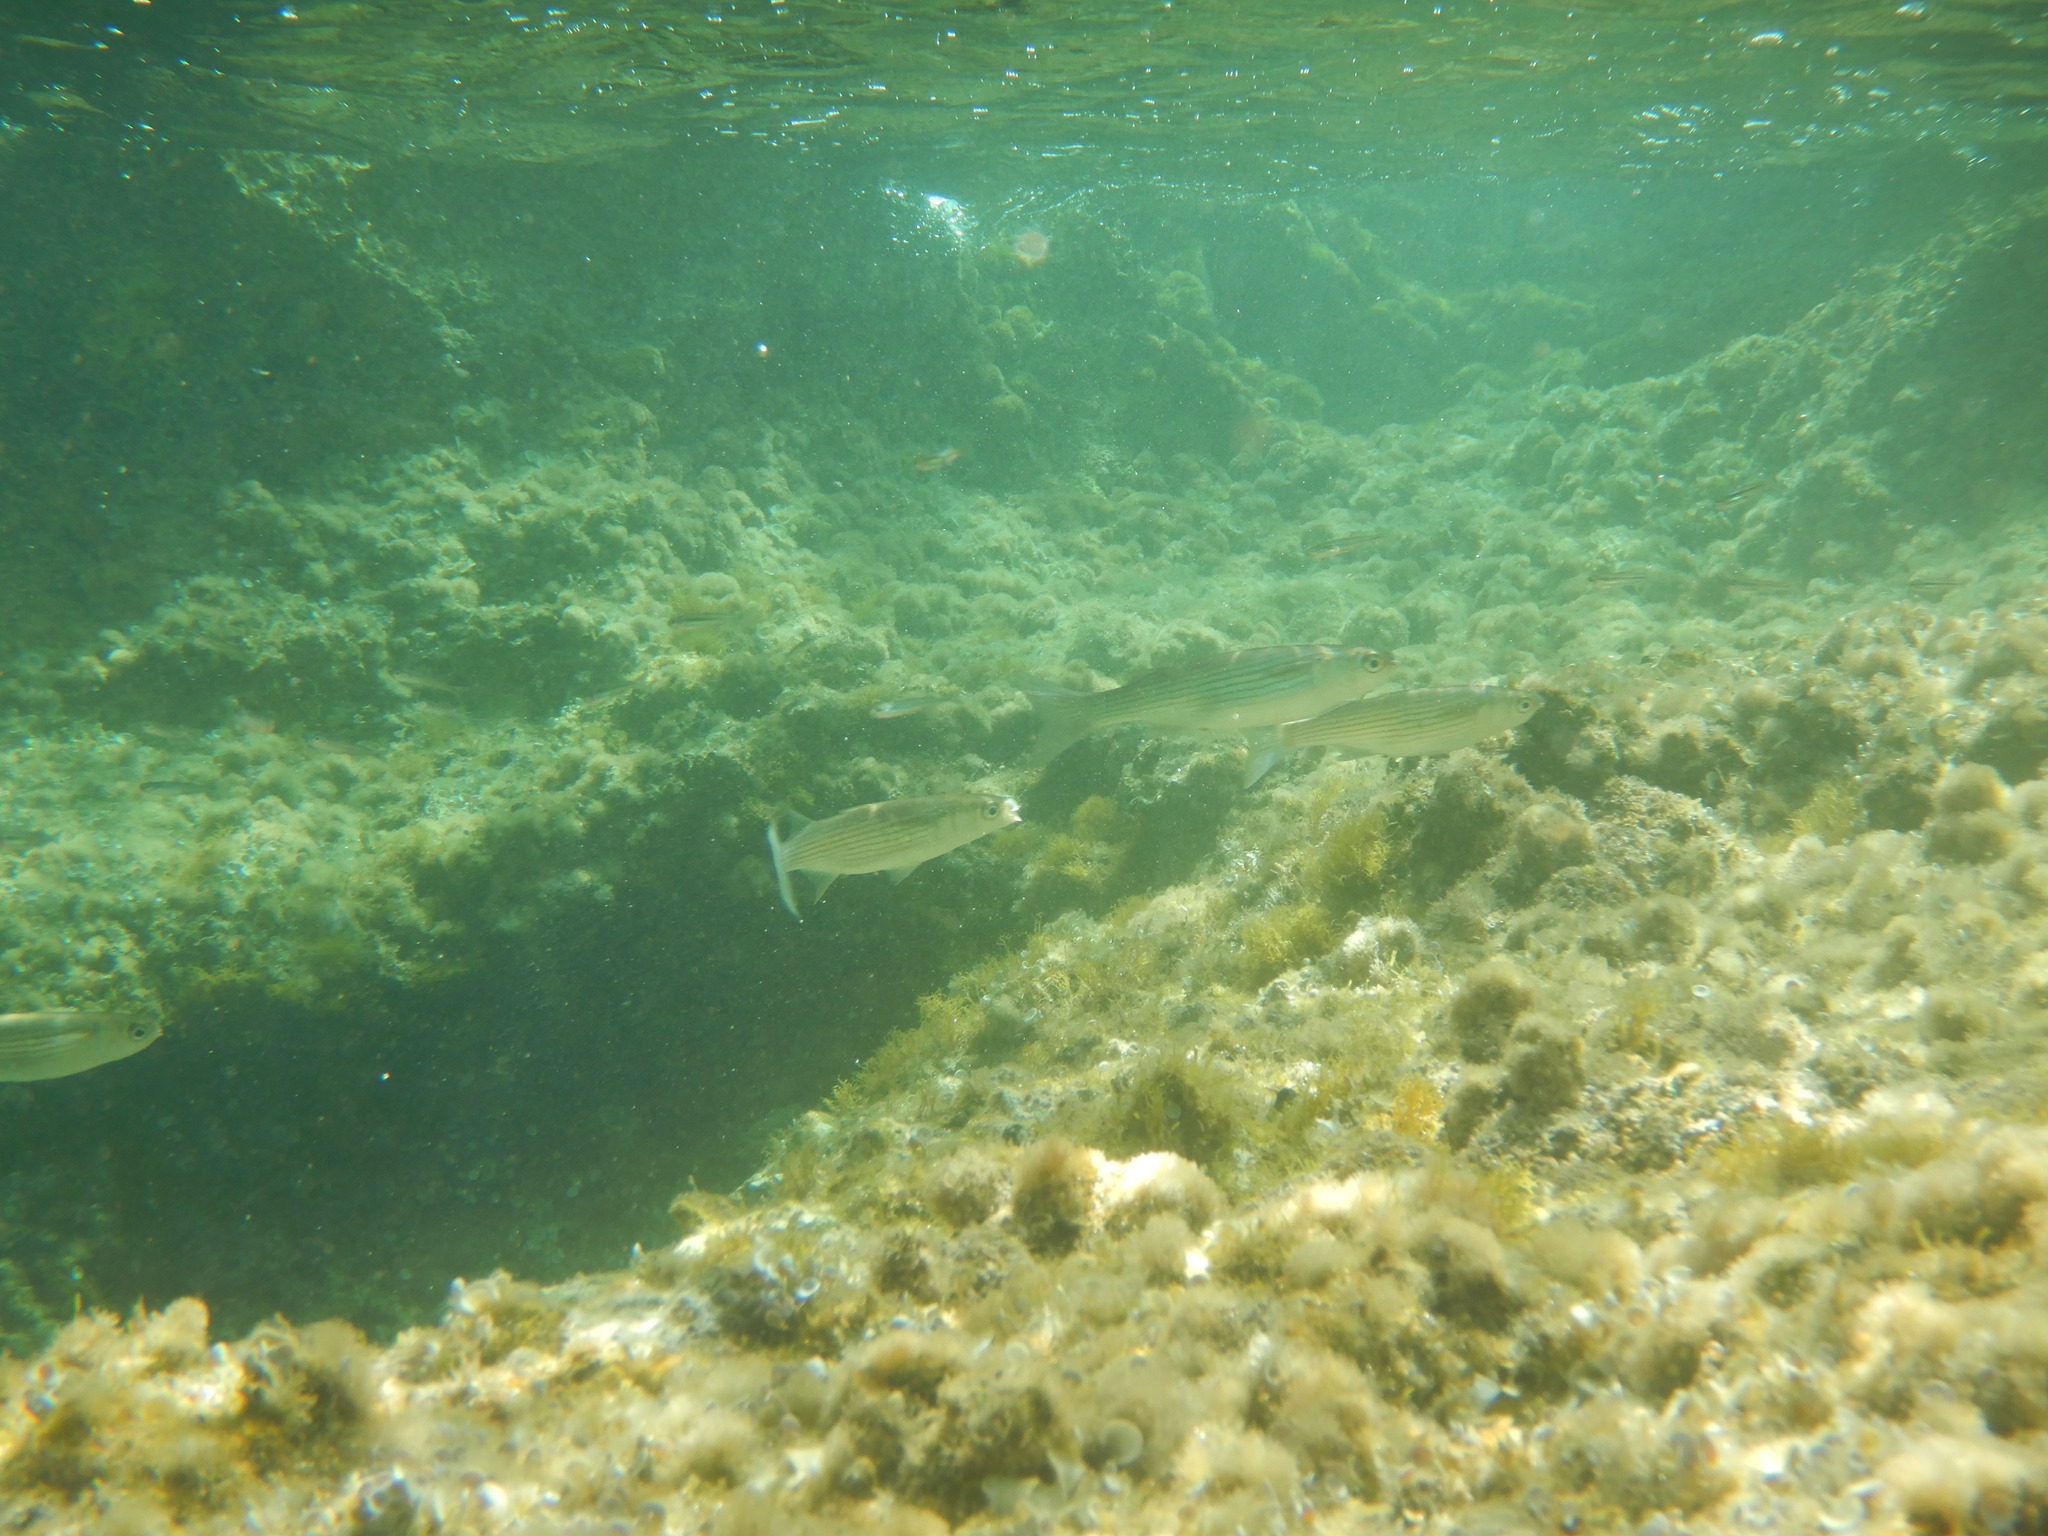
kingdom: Animalia
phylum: Chordata
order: Mugiliformes
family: Mugilidae
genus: Oedalechilus
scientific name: Oedalechilus labeo
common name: Boxlip mullet
